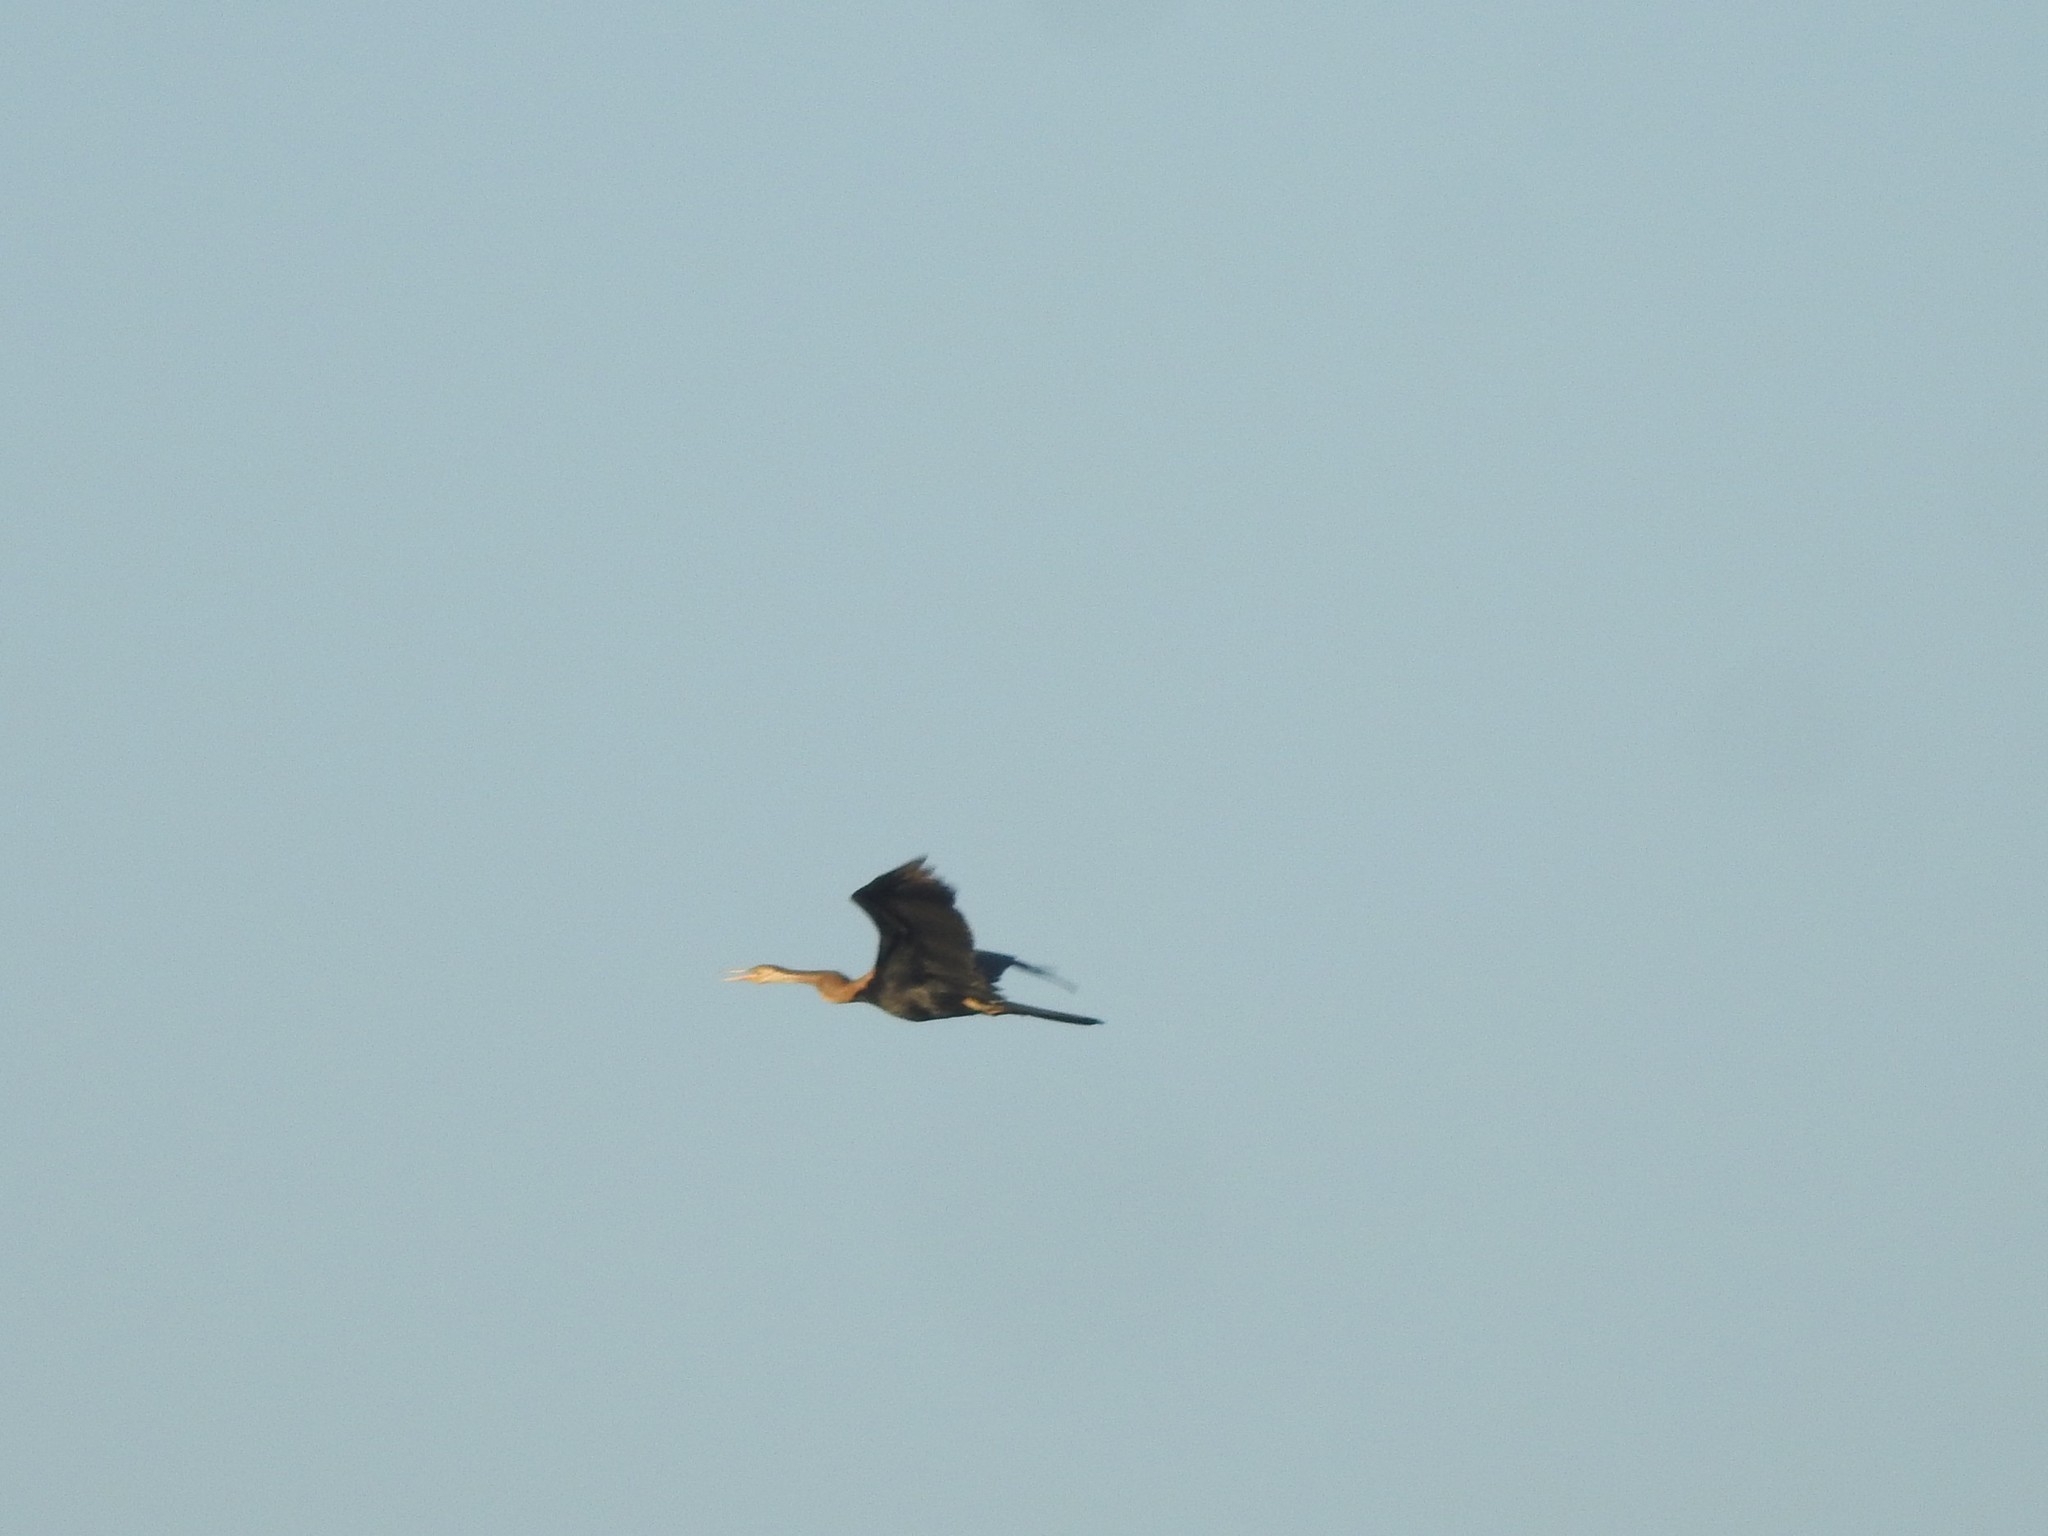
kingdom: Animalia
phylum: Chordata
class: Aves
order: Suliformes
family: Anhingidae
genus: Anhinga
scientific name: Anhinga melanogaster
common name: Oriental darter
